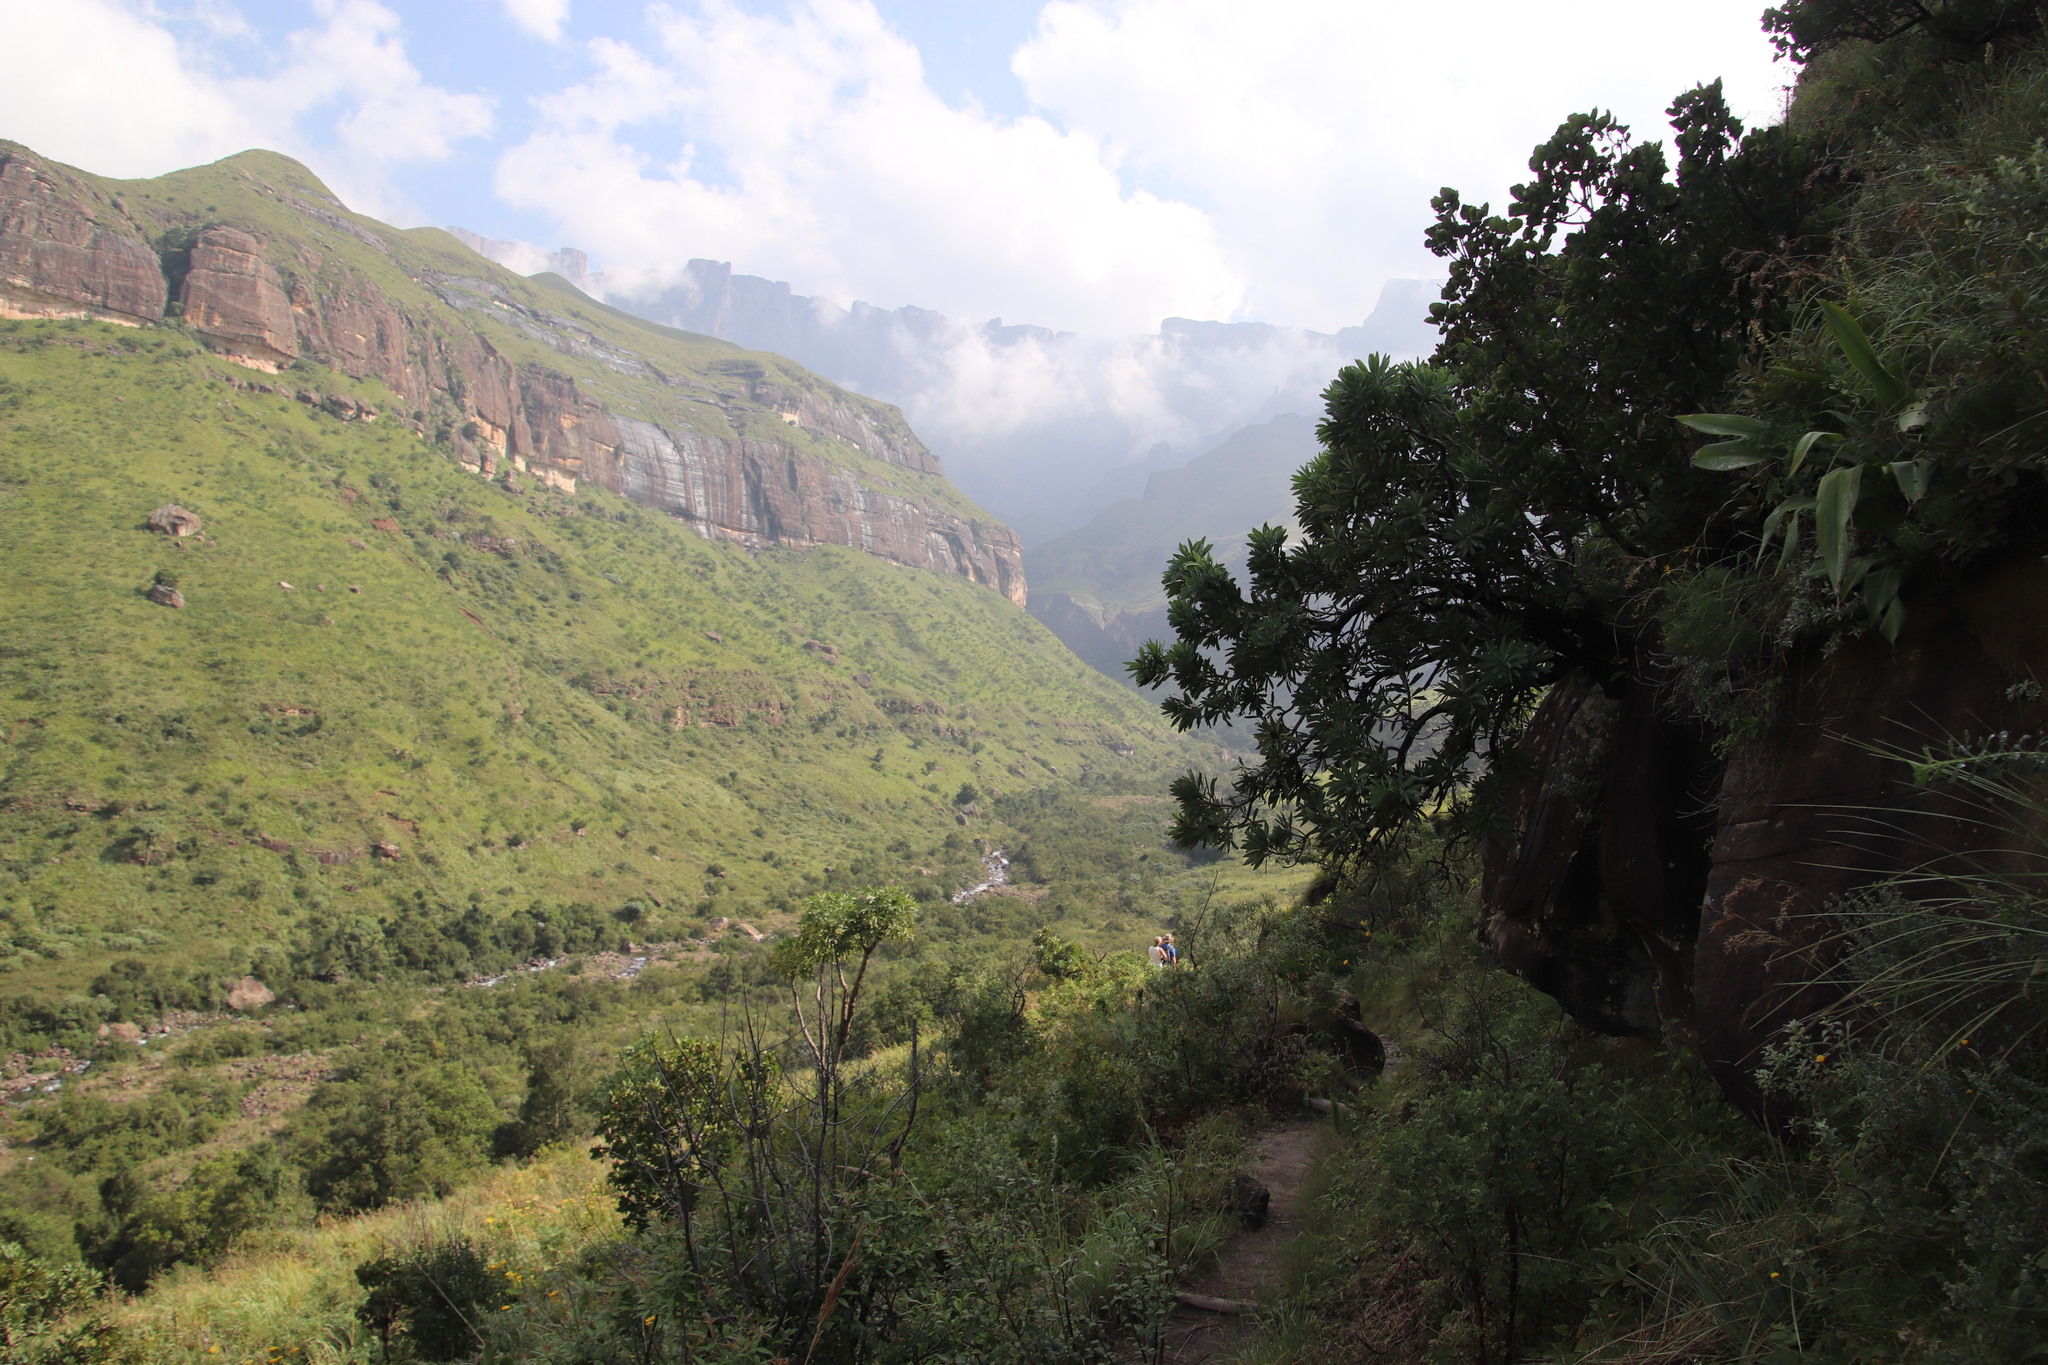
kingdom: Plantae
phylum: Tracheophyta
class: Magnoliopsida
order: Proteales
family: Proteaceae
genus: Protea
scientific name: Protea caffra
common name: Common sugarbush
